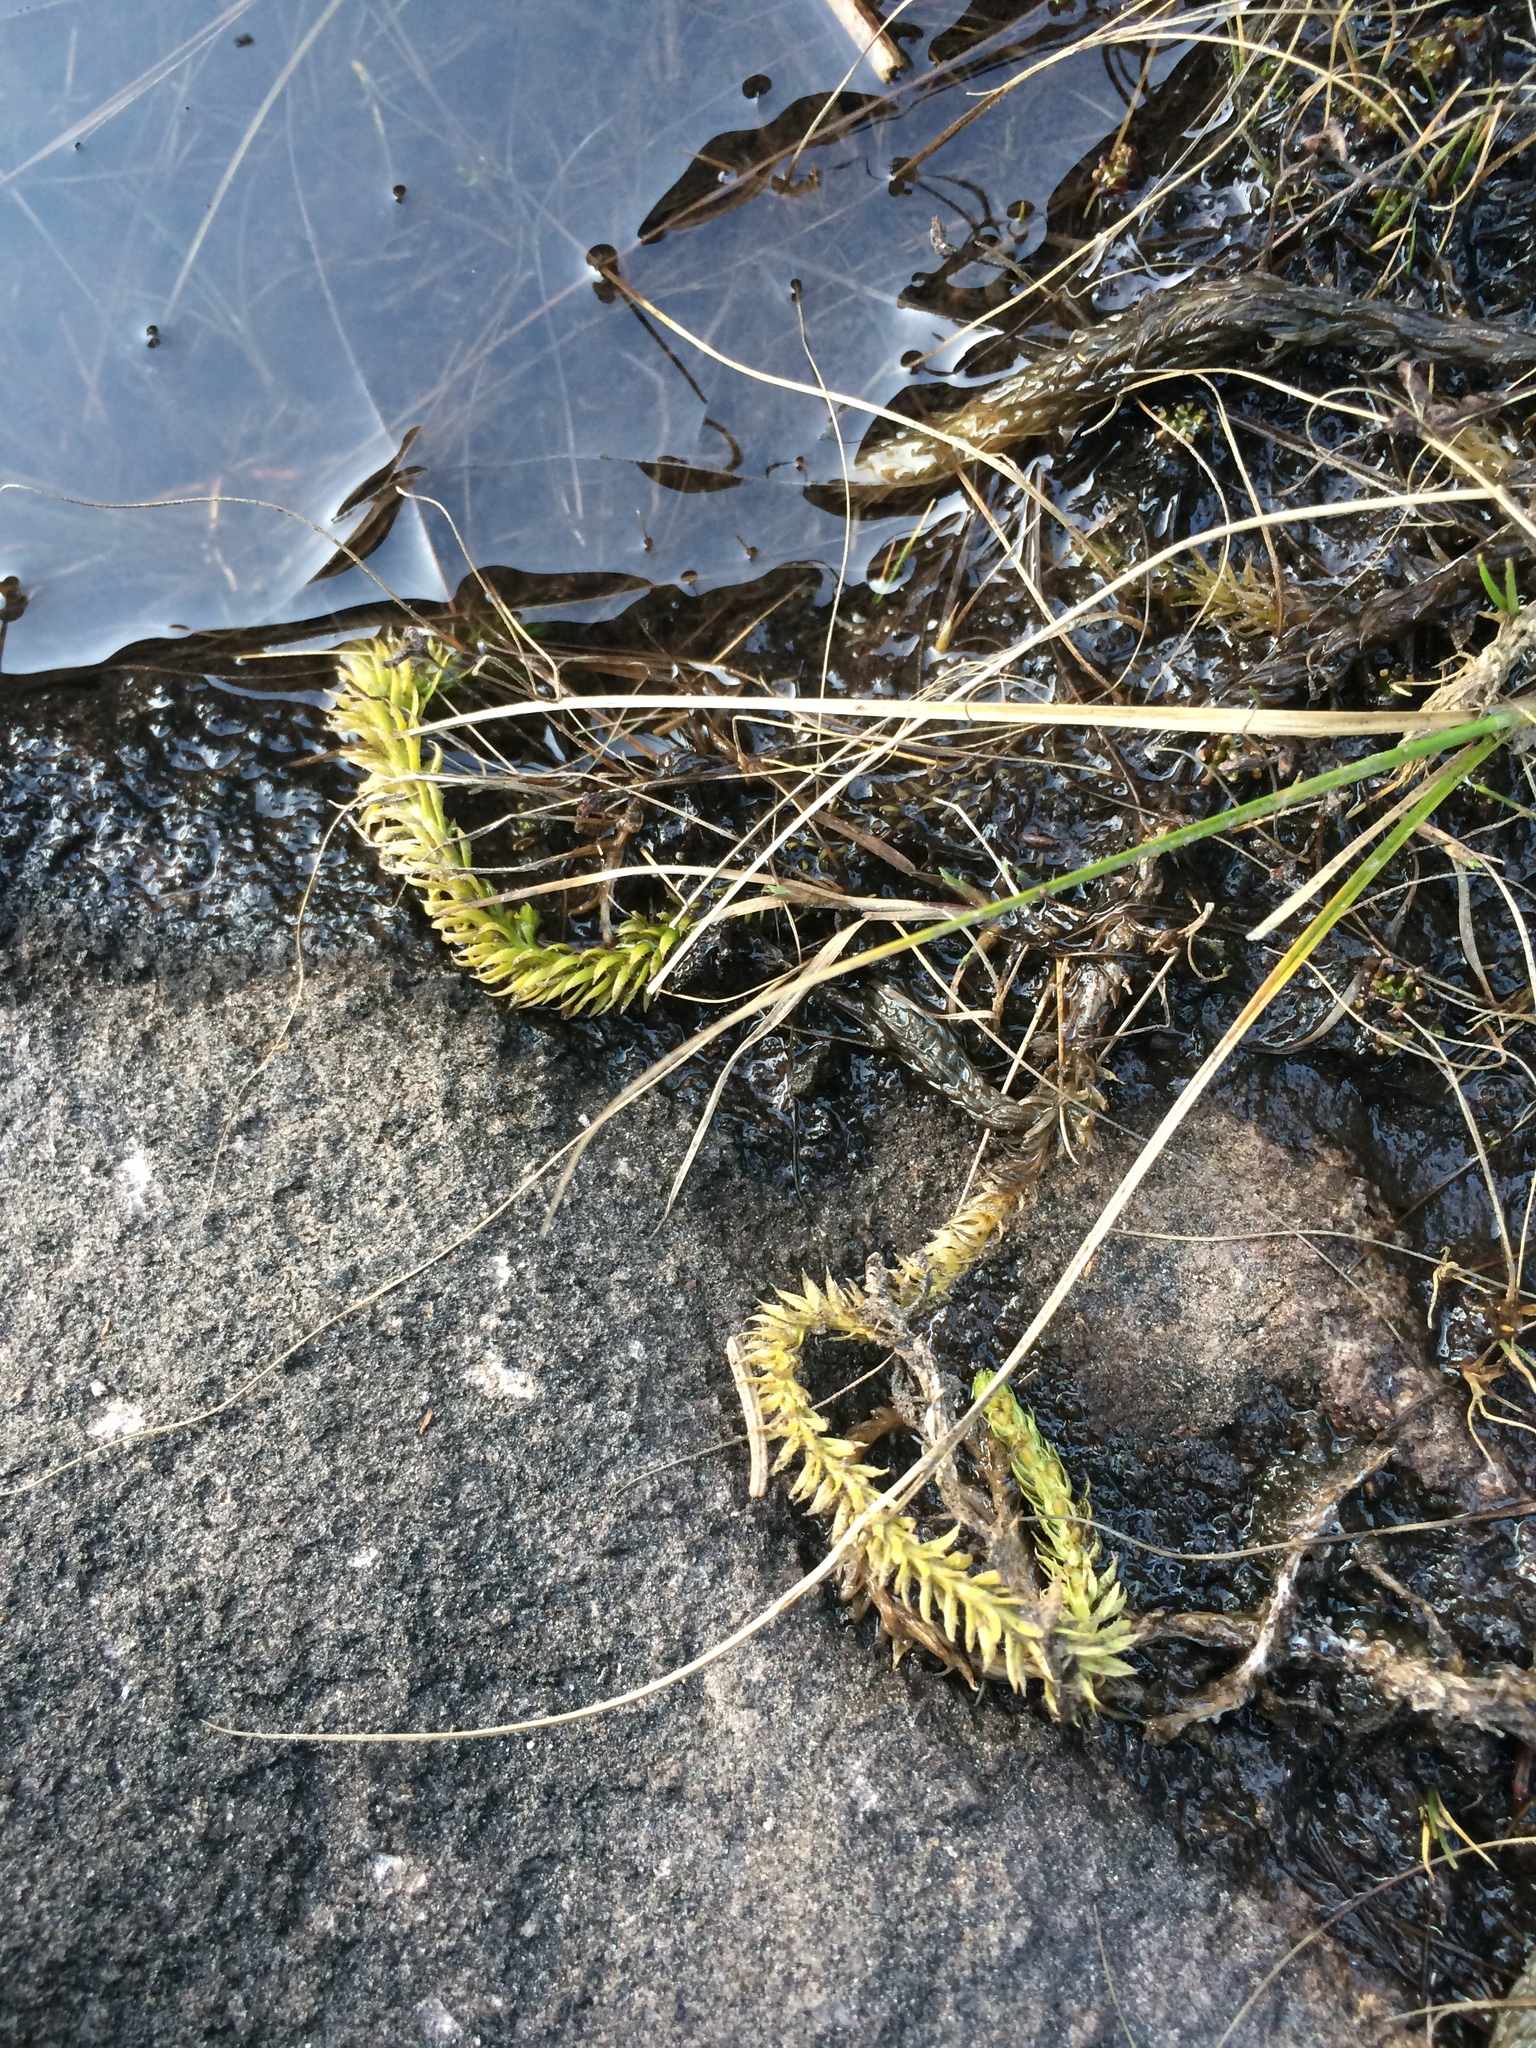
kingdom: Plantae
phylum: Tracheophyta
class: Lycopodiopsida
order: Lycopodiales
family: Lycopodiaceae
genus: Lycopodiella
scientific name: Lycopodiella inundata
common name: Marsh clubmoss
